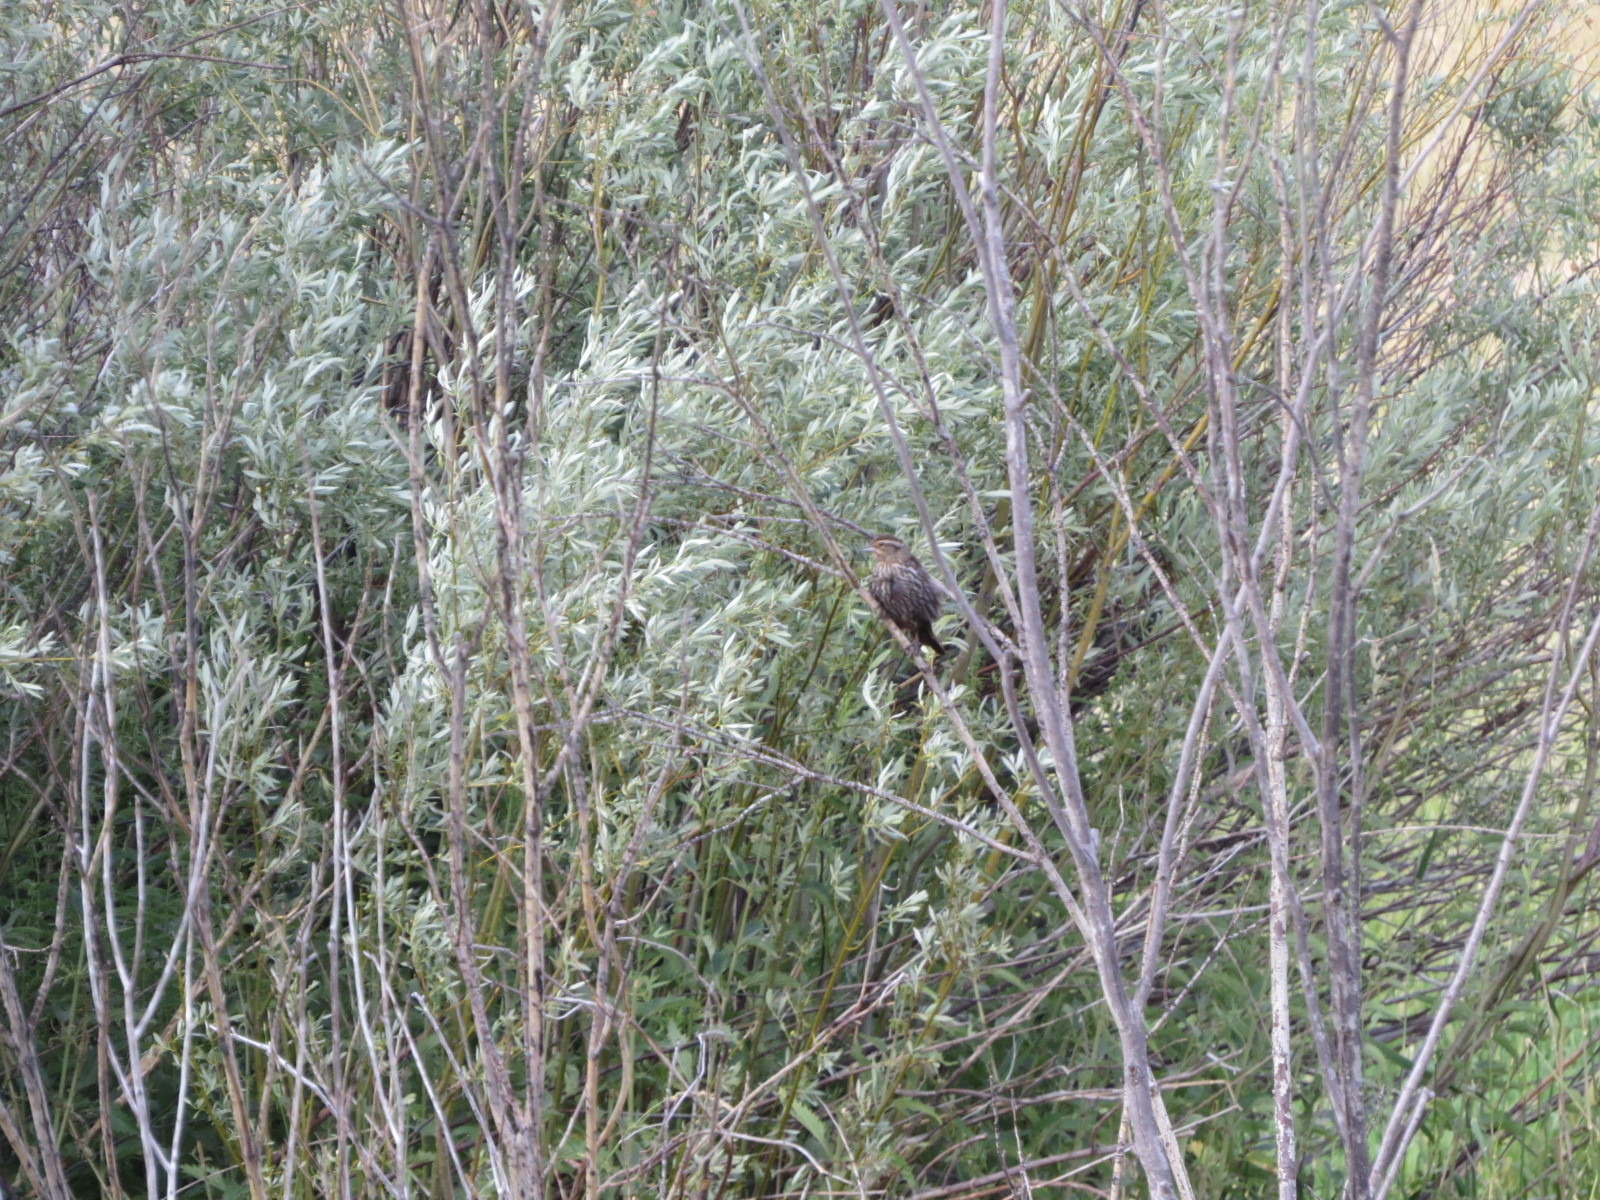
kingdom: Animalia
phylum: Chordata
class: Aves
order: Passeriformes
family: Icteridae
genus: Agelaius
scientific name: Agelaius phoeniceus
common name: Red-winged blackbird
